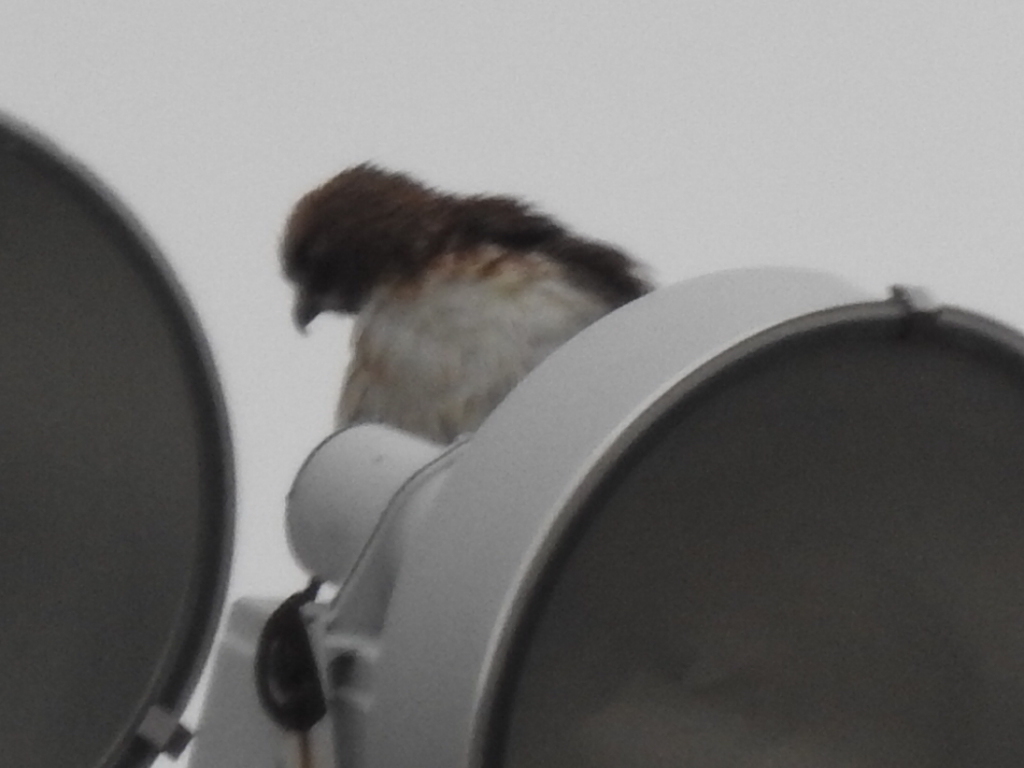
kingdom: Animalia
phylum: Chordata
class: Aves
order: Accipitriformes
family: Accipitridae
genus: Buteo
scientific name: Buteo jamaicensis
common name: Red-tailed hawk
